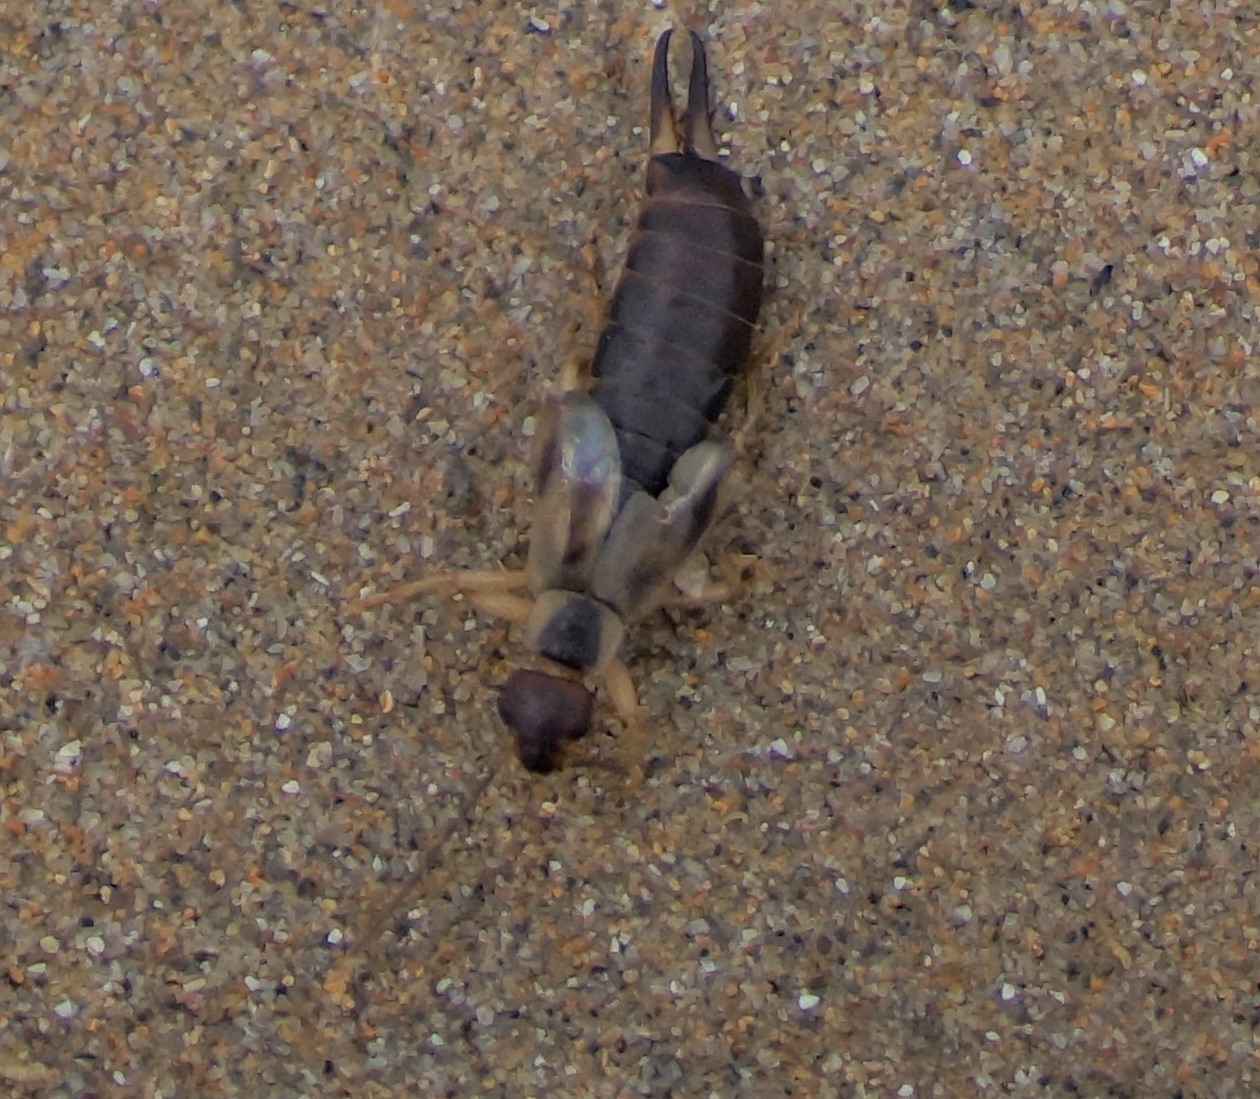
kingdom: Animalia
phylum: Arthropoda
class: Insecta
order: Dermaptera
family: Forficulidae
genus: Forficula
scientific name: Forficula
